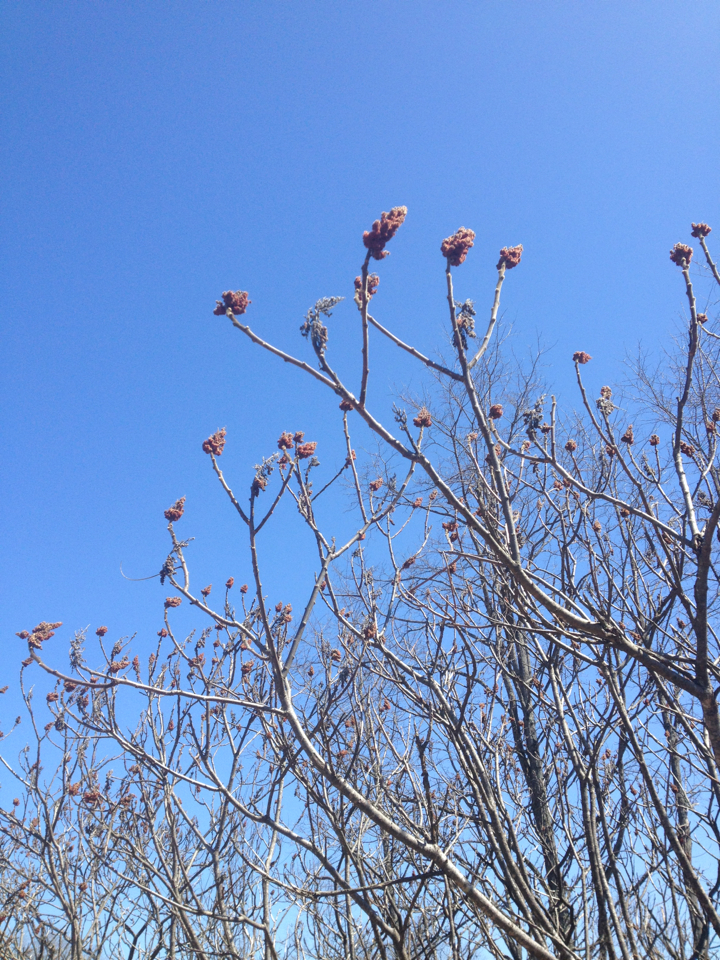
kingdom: Plantae
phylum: Tracheophyta
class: Magnoliopsida
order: Sapindales
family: Anacardiaceae
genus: Rhus
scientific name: Rhus typhina
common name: Staghorn sumac
